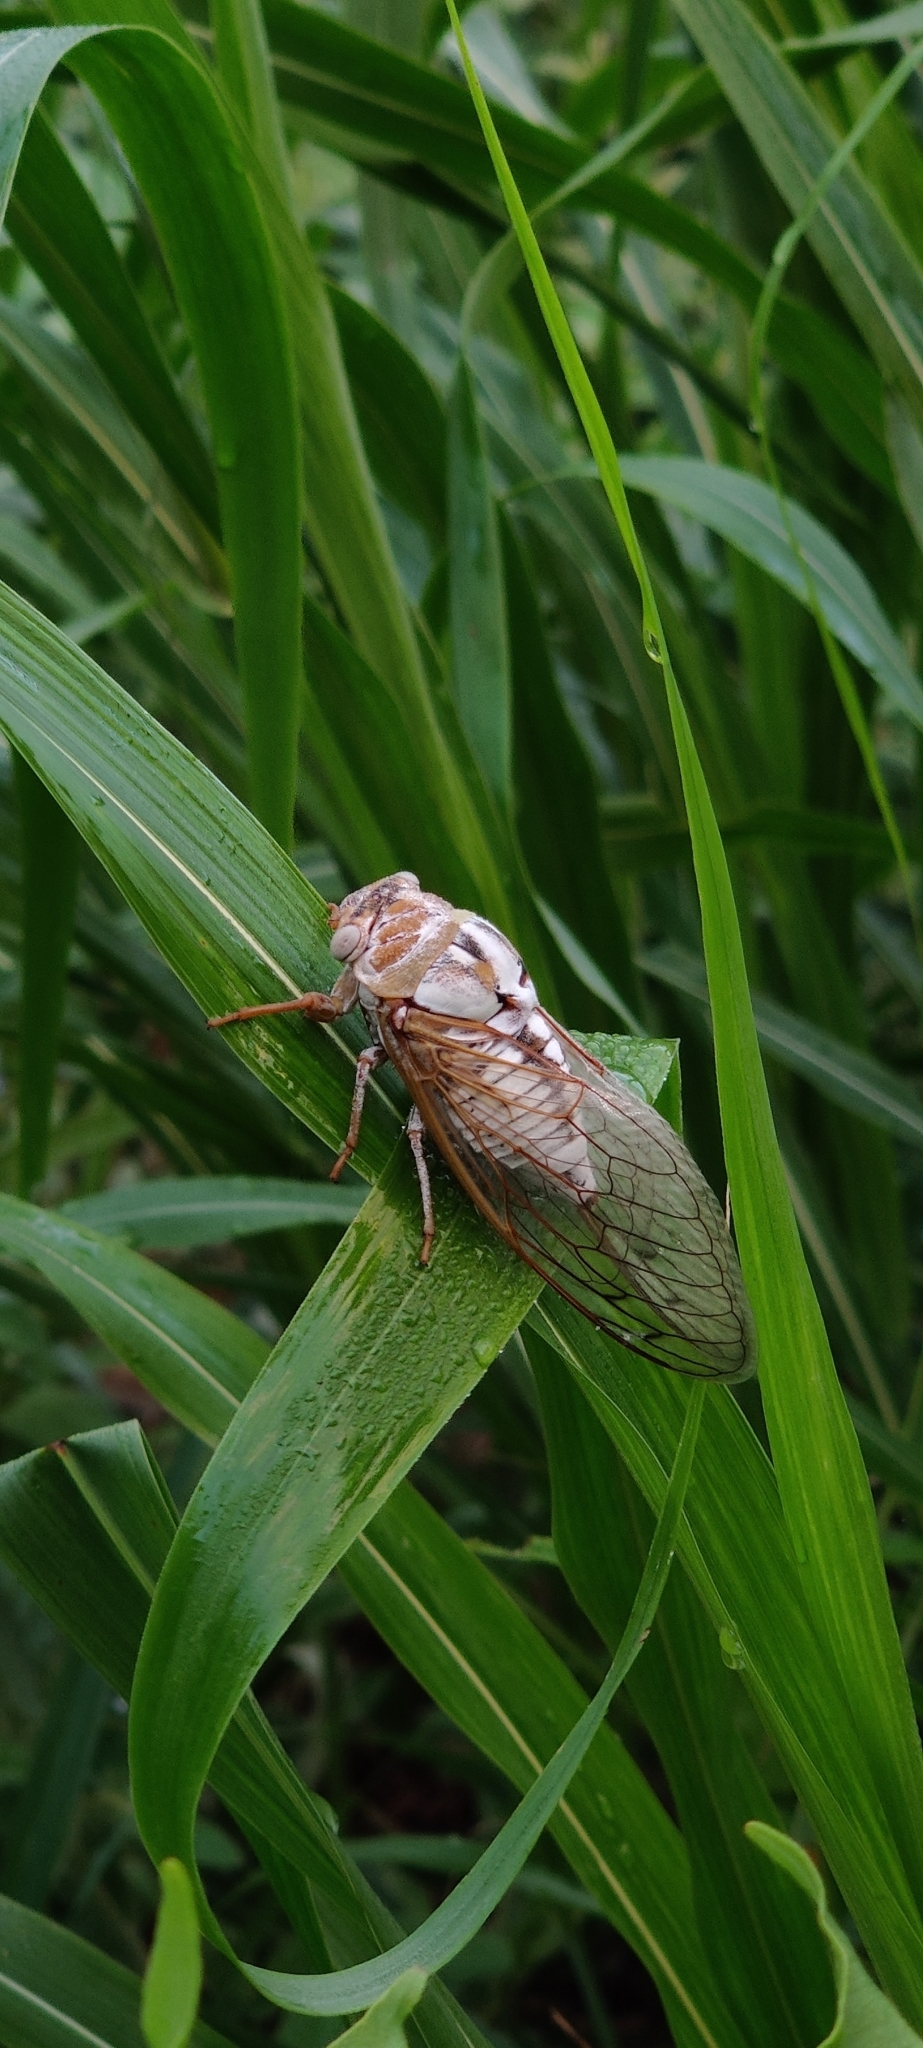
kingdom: Animalia
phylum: Arthropoda
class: Insecta
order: Hemiptera
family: Cicadidae
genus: Megatibicen
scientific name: Megatibicen dealbatus
